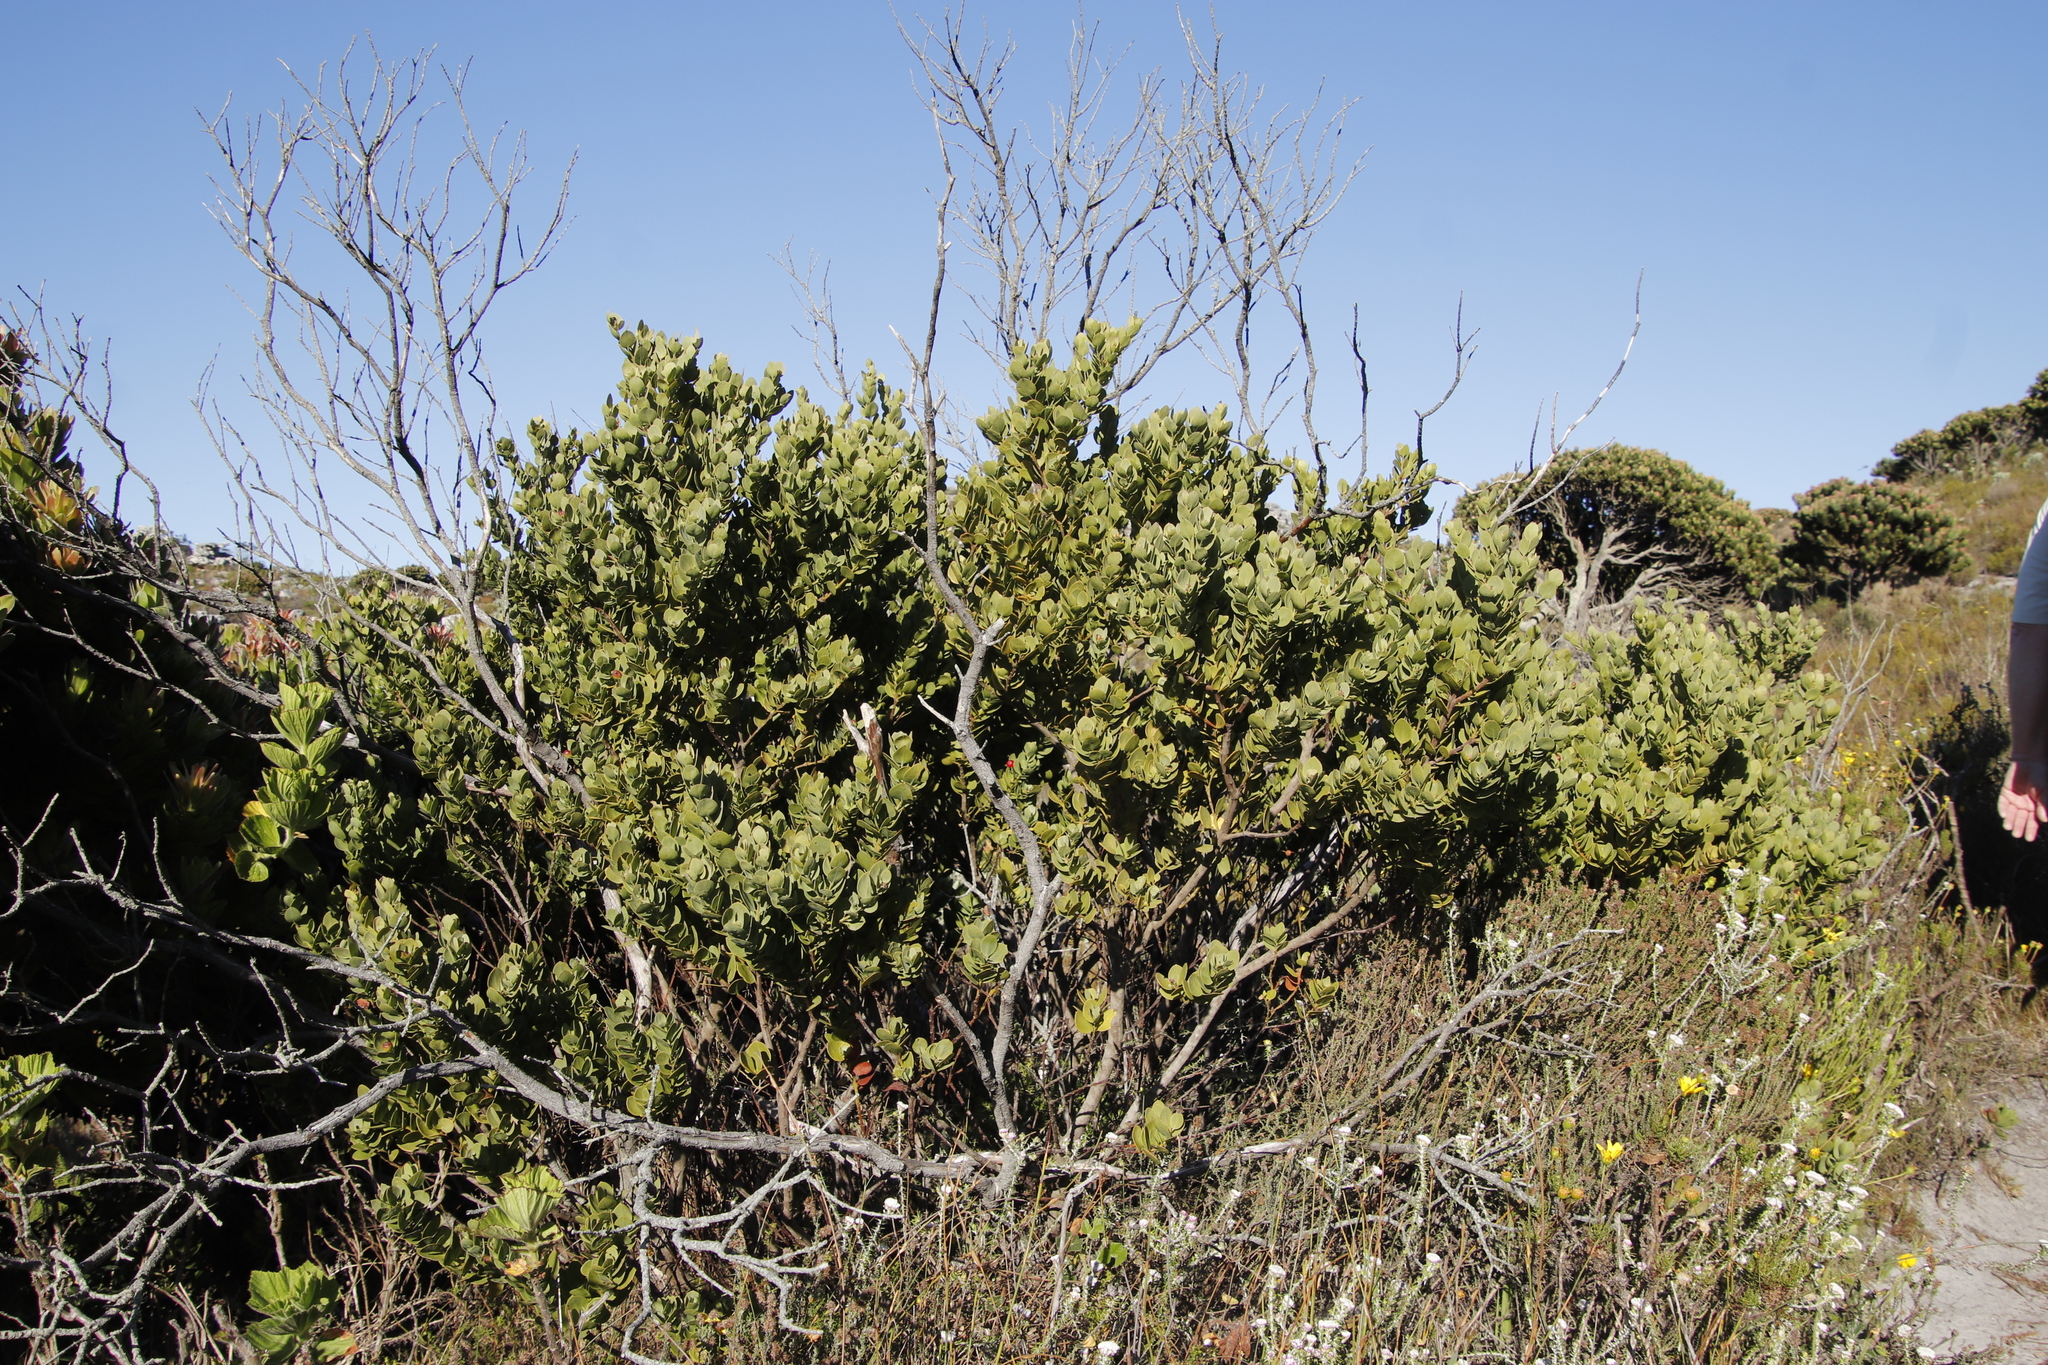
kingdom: Plantae
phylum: Tracheophyta
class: Magnoliopsida
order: Santalales
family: Santalaceae
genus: Osyris
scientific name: Osyris compressa
